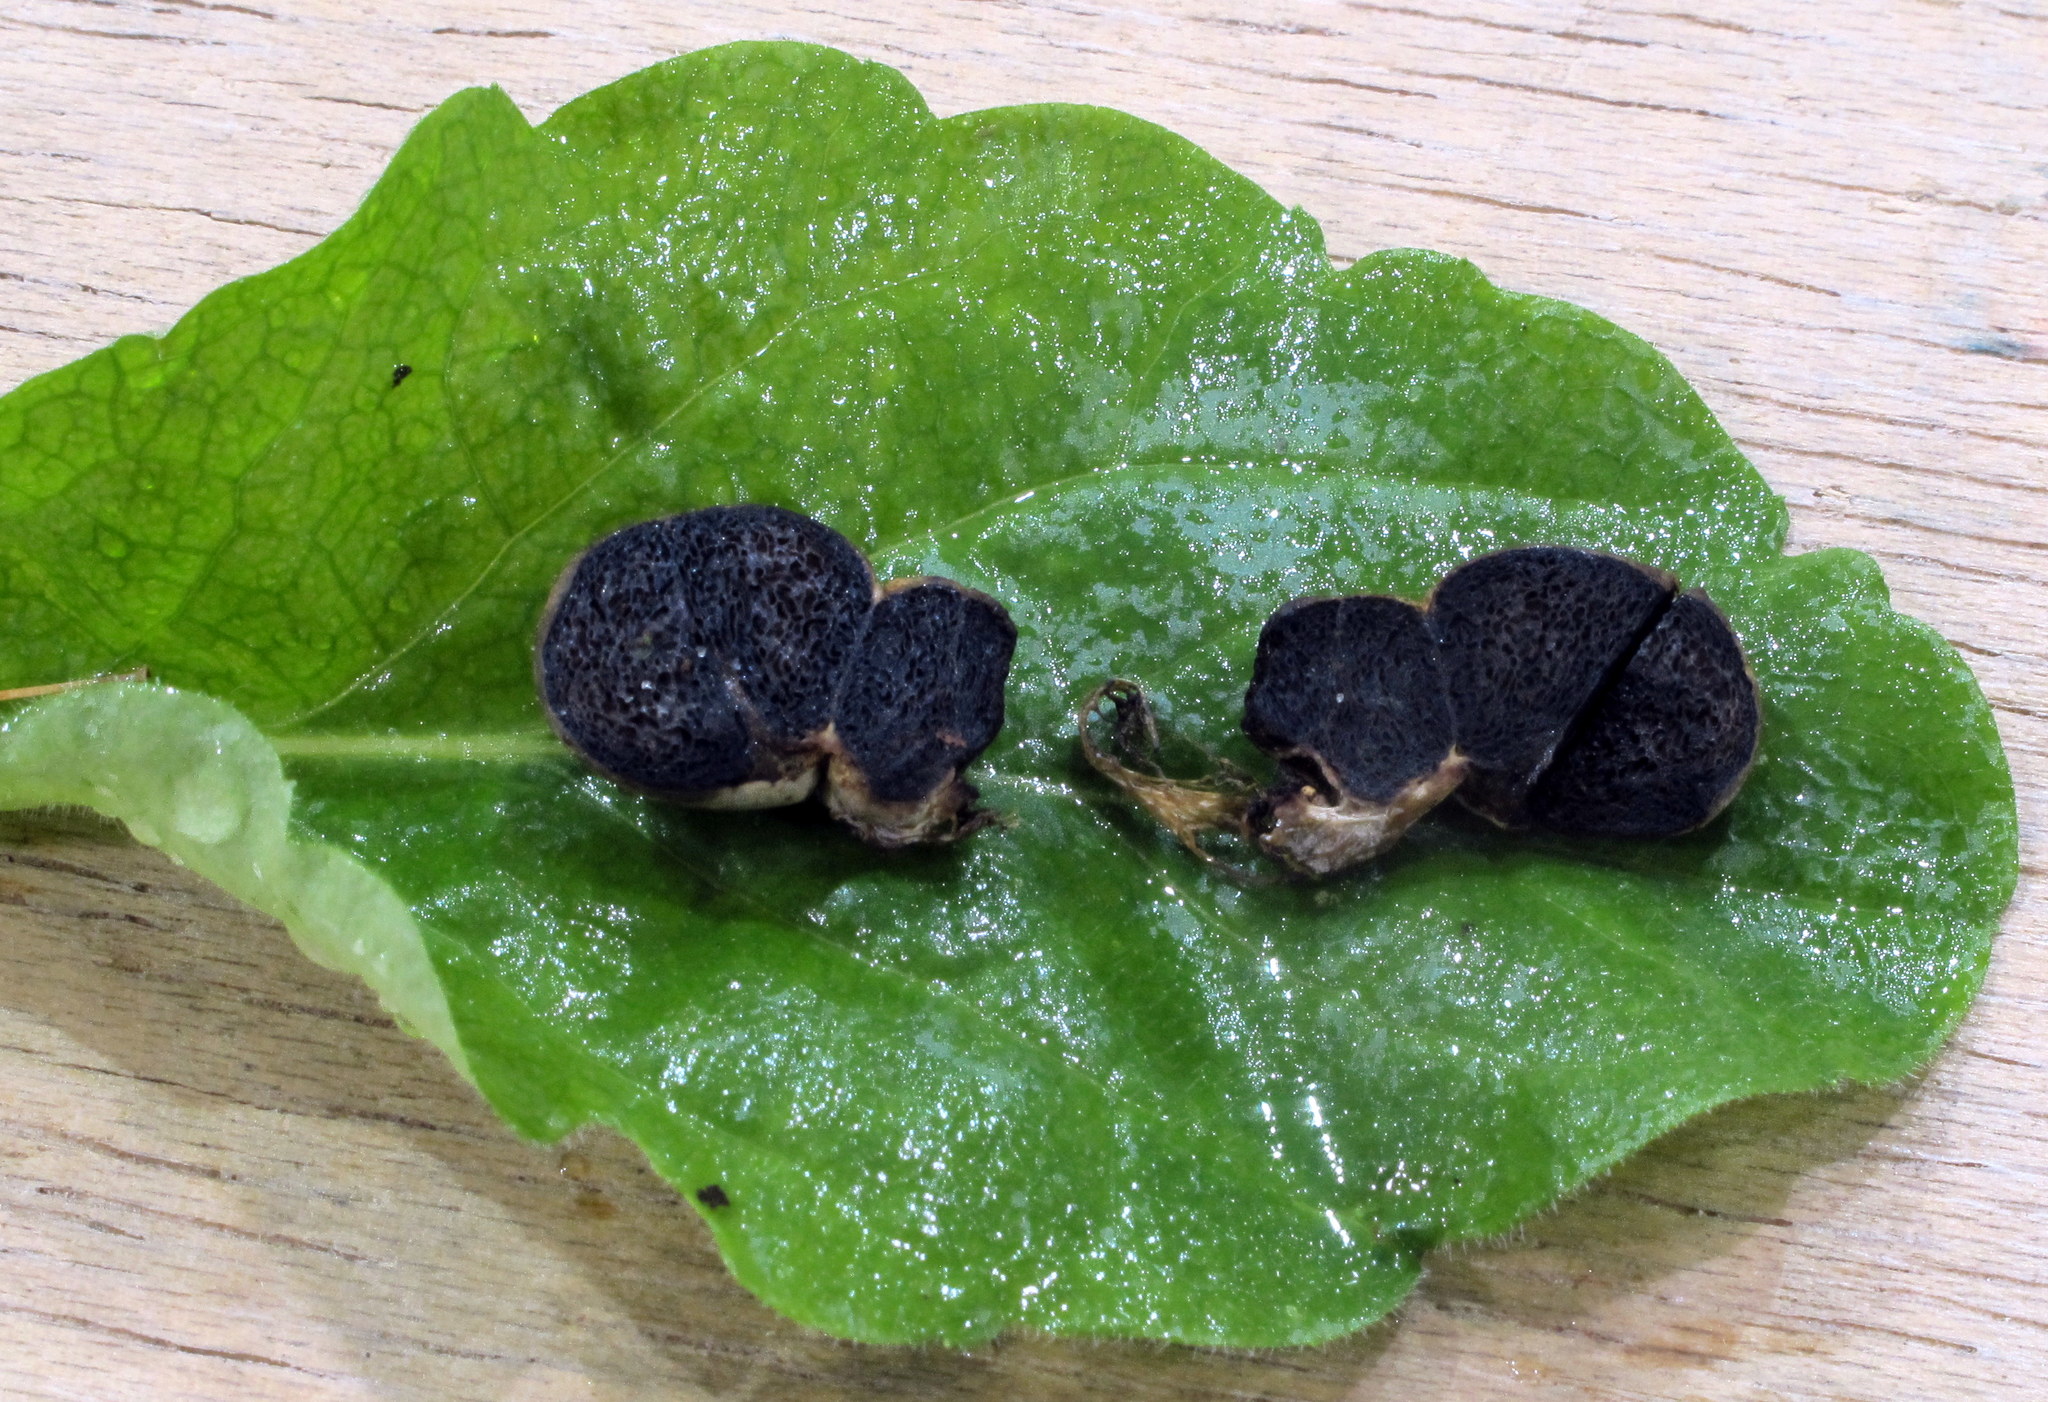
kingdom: Fungi
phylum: Basidiomycota
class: Agaricomycetes
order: Boletales
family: Boletaceae
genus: Chamonixia
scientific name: Chamonixia brevicolumna
